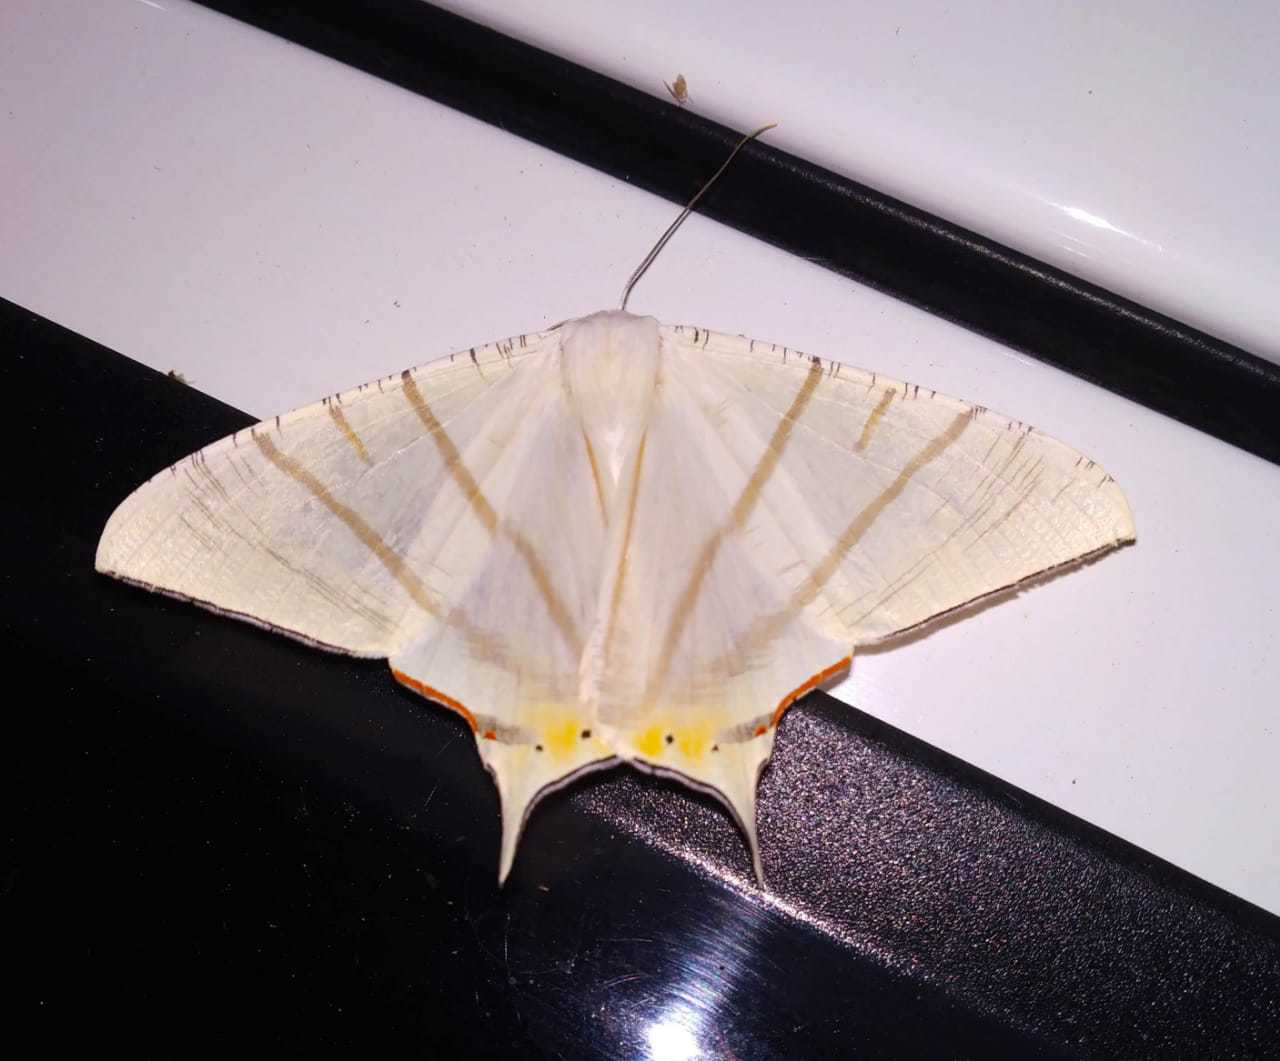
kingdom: Animalia
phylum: Arthropoda
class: Insecta
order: Lepidoptera
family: Geometridae
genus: Ourapteryx
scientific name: Ourapteryx marginata
